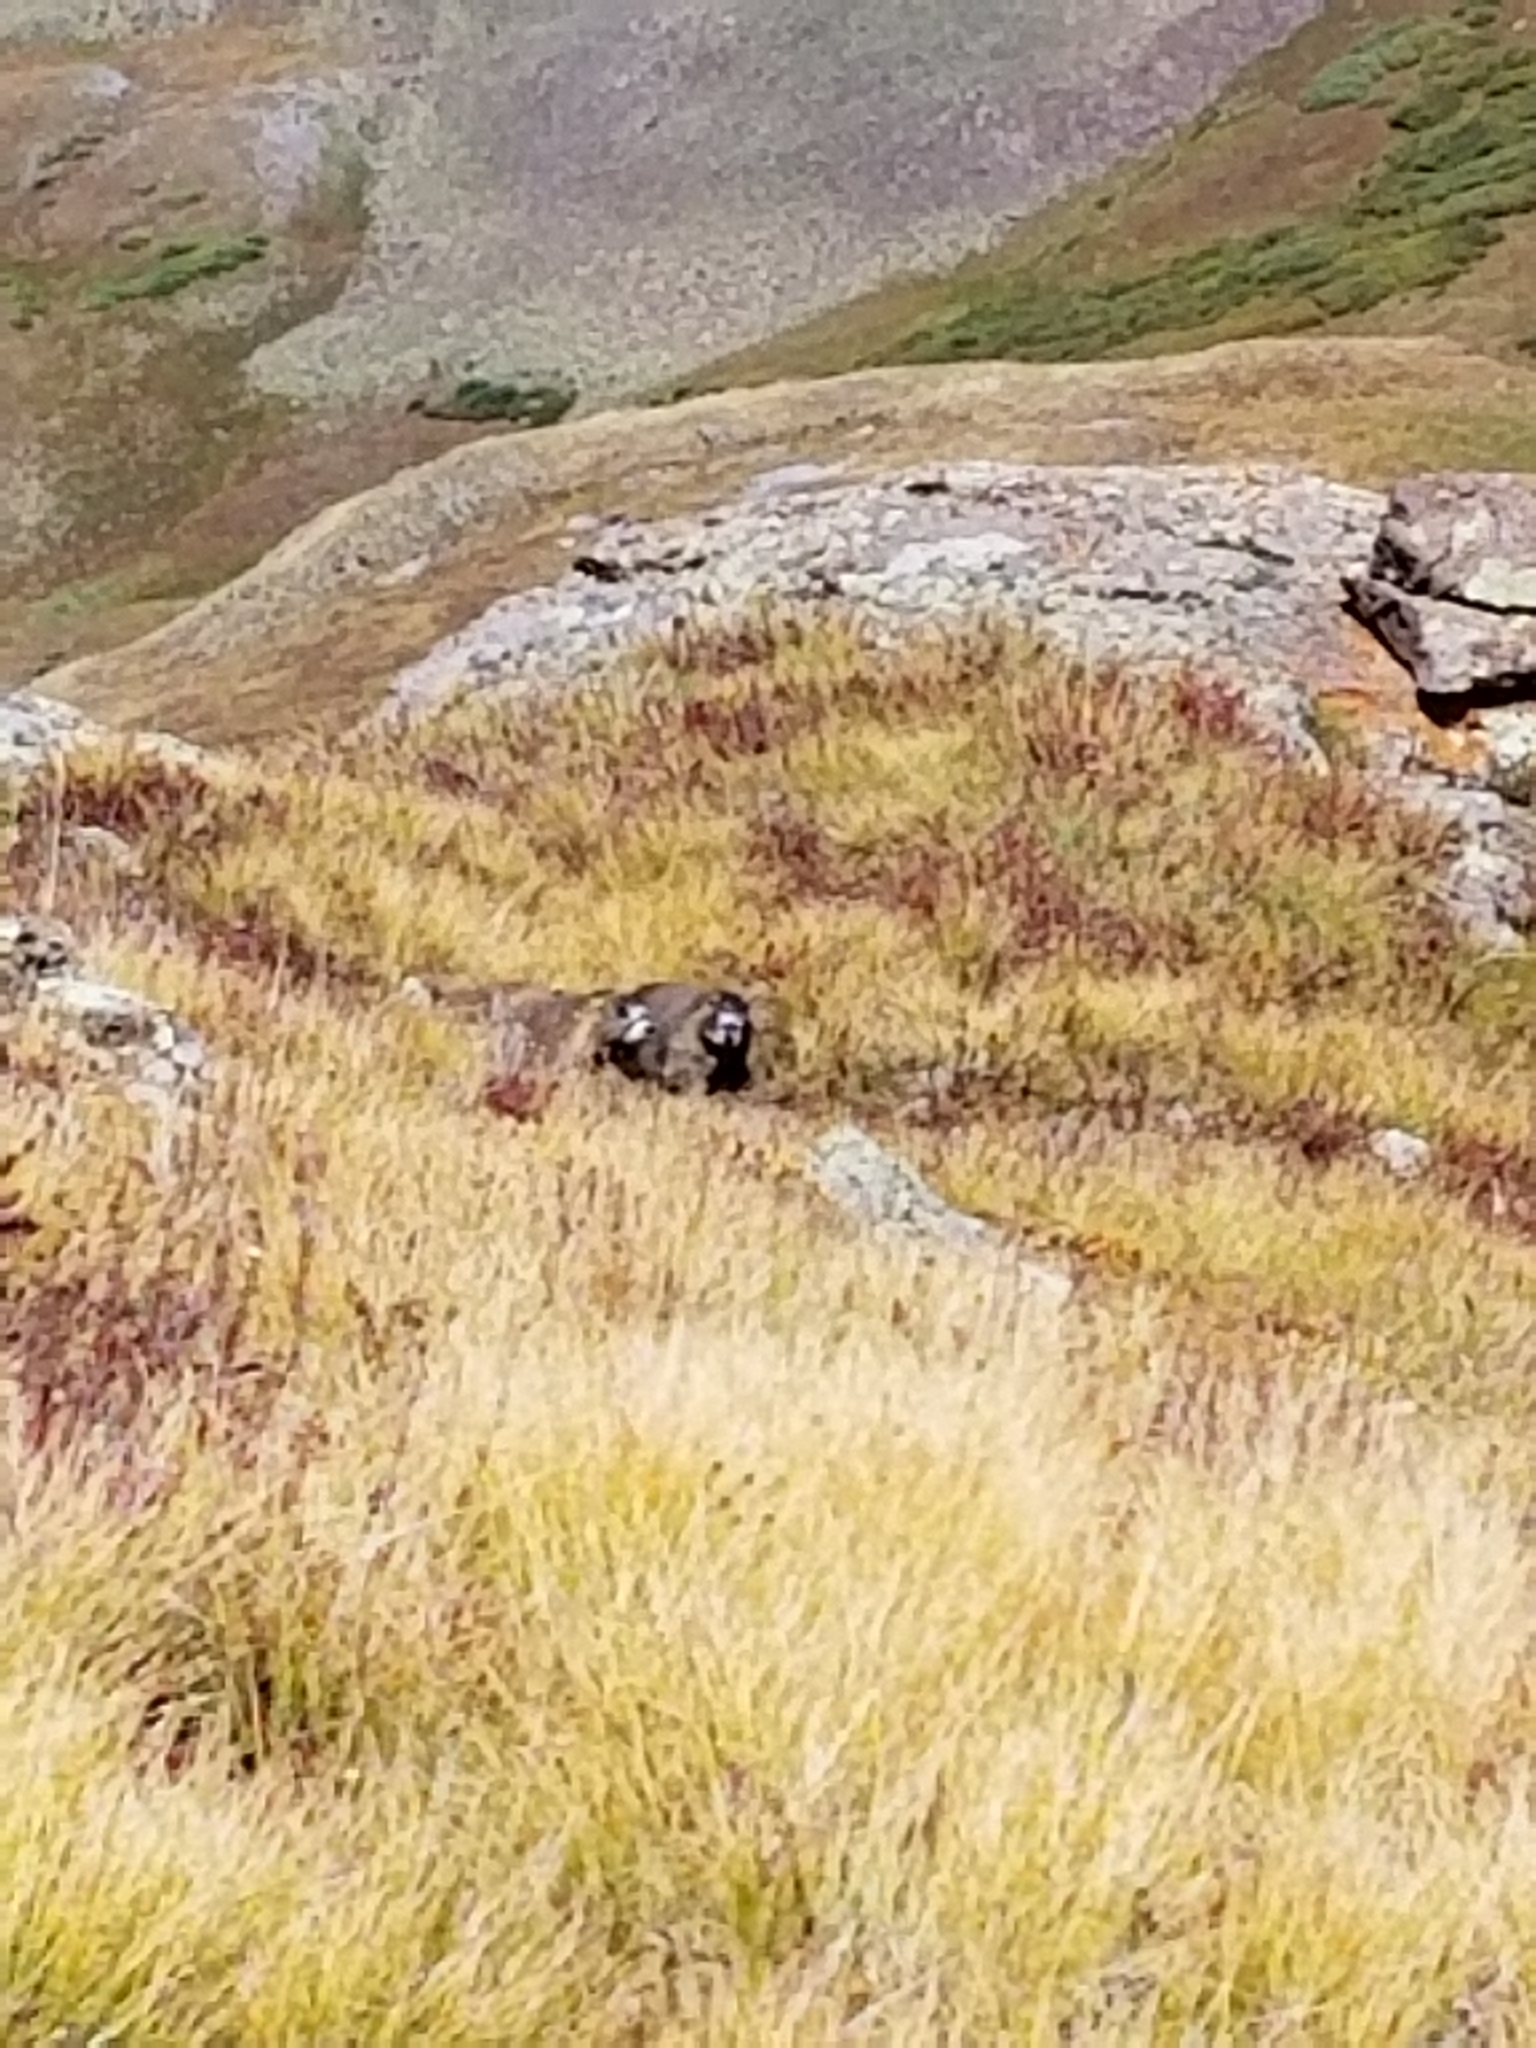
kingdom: Animalia
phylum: Chordata
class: Mammalia
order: Rodentia
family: Sciuridae
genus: Marmota
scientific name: Marmota flaviventris
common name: Yellow-bellied marmot
